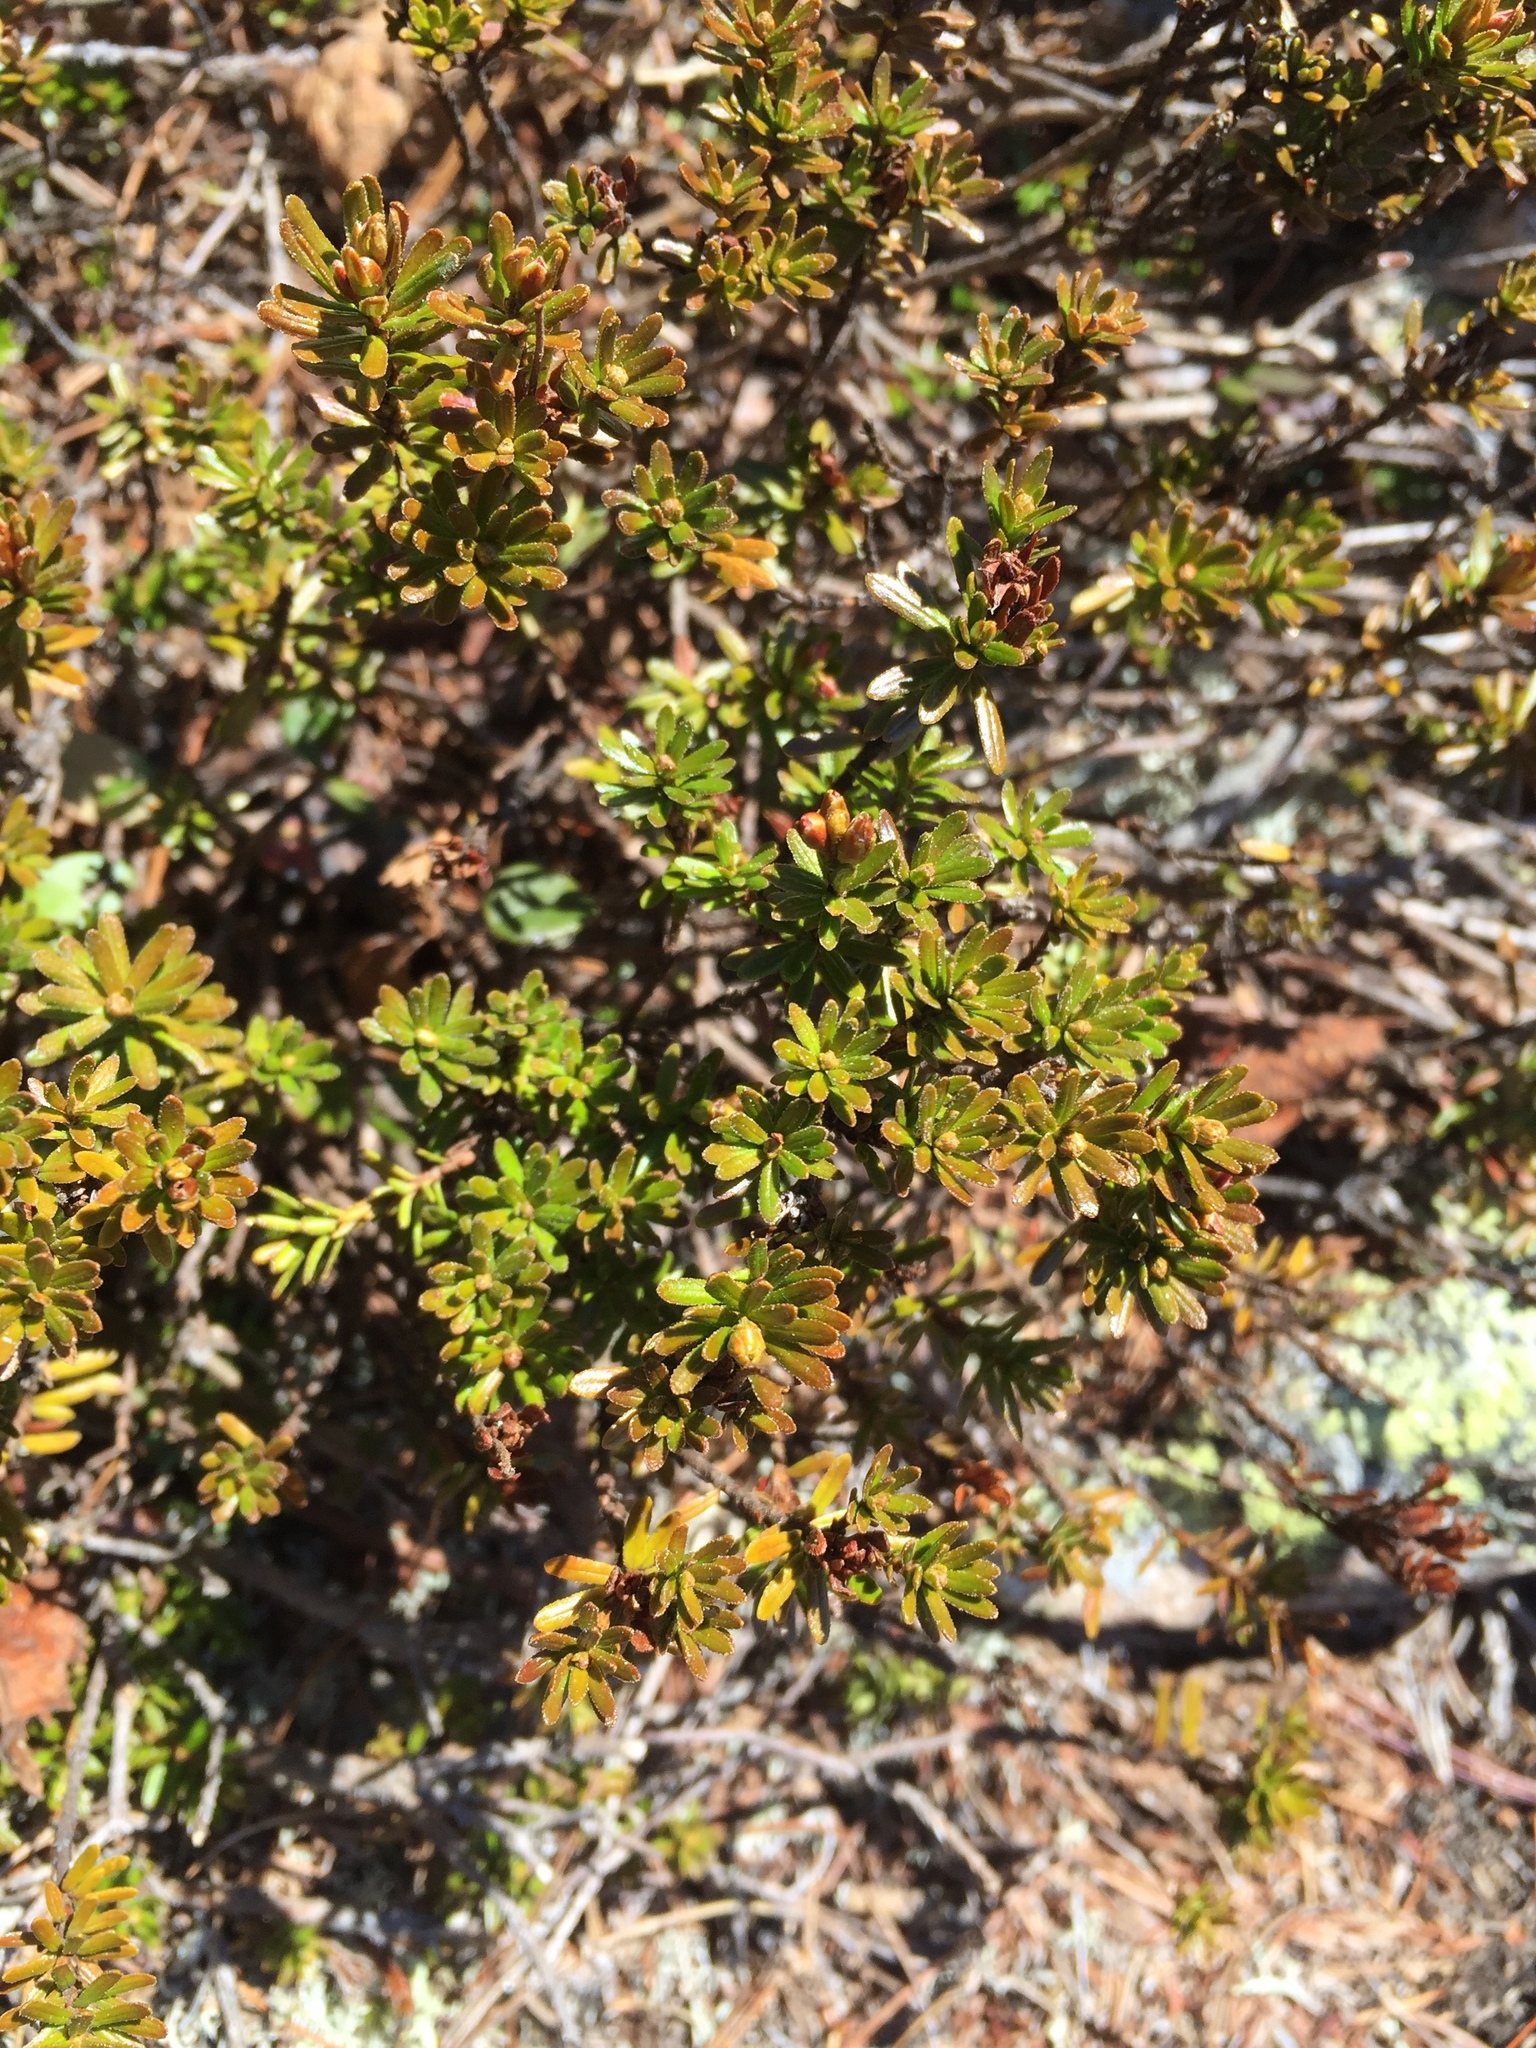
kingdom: Plantae
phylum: Tracheophyta
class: Magnoliopsida
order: Ericales
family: Ericaceae
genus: Phyllodoce
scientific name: Phyllodoce caerulea
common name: Blue heath
